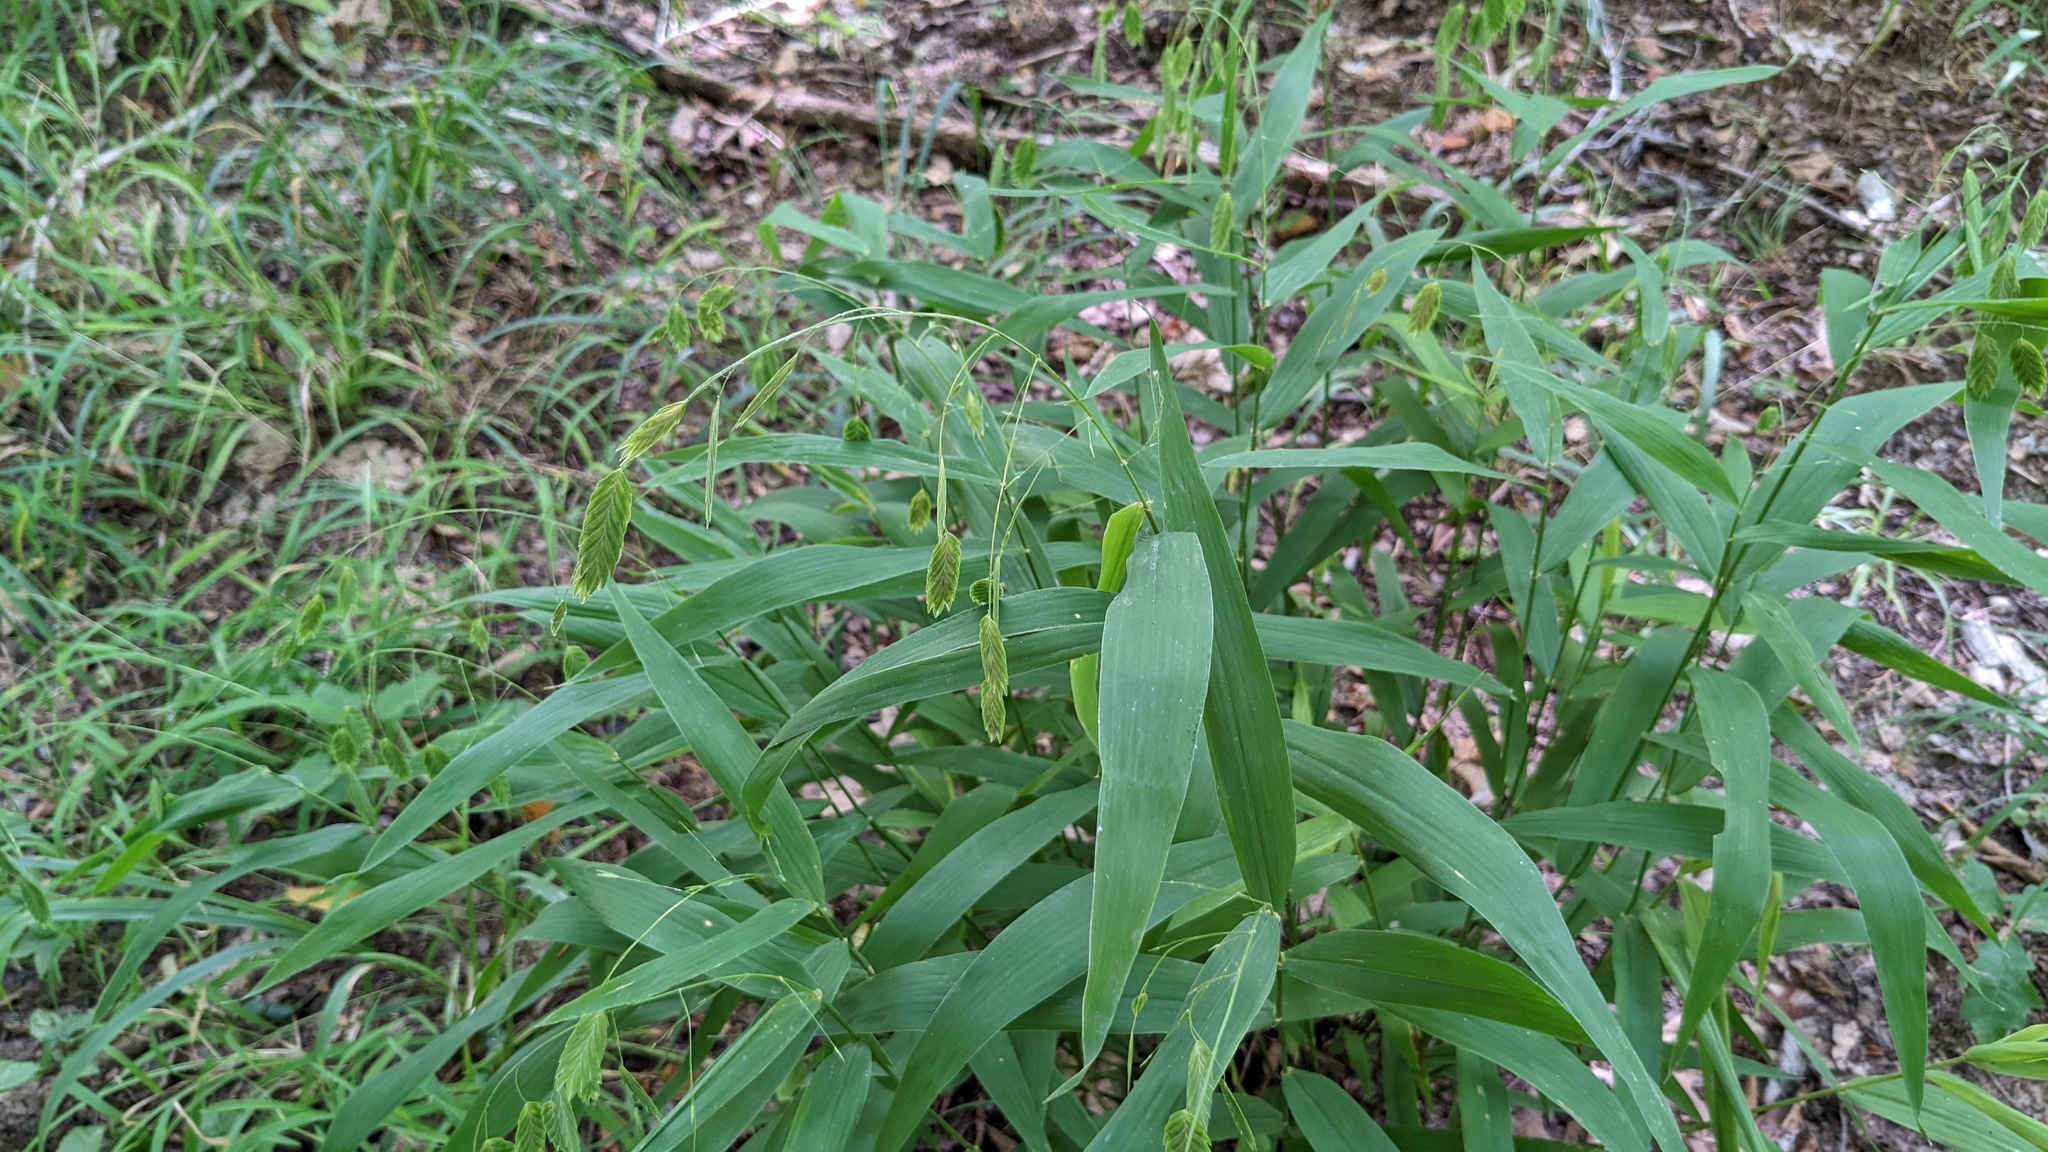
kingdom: Plantae
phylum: Tracheophyta
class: Liliopsida
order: Poales
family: Poaceae
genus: Chasmanthium
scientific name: Chasmanthium latifolium
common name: Broad-leaved chasmanthium
